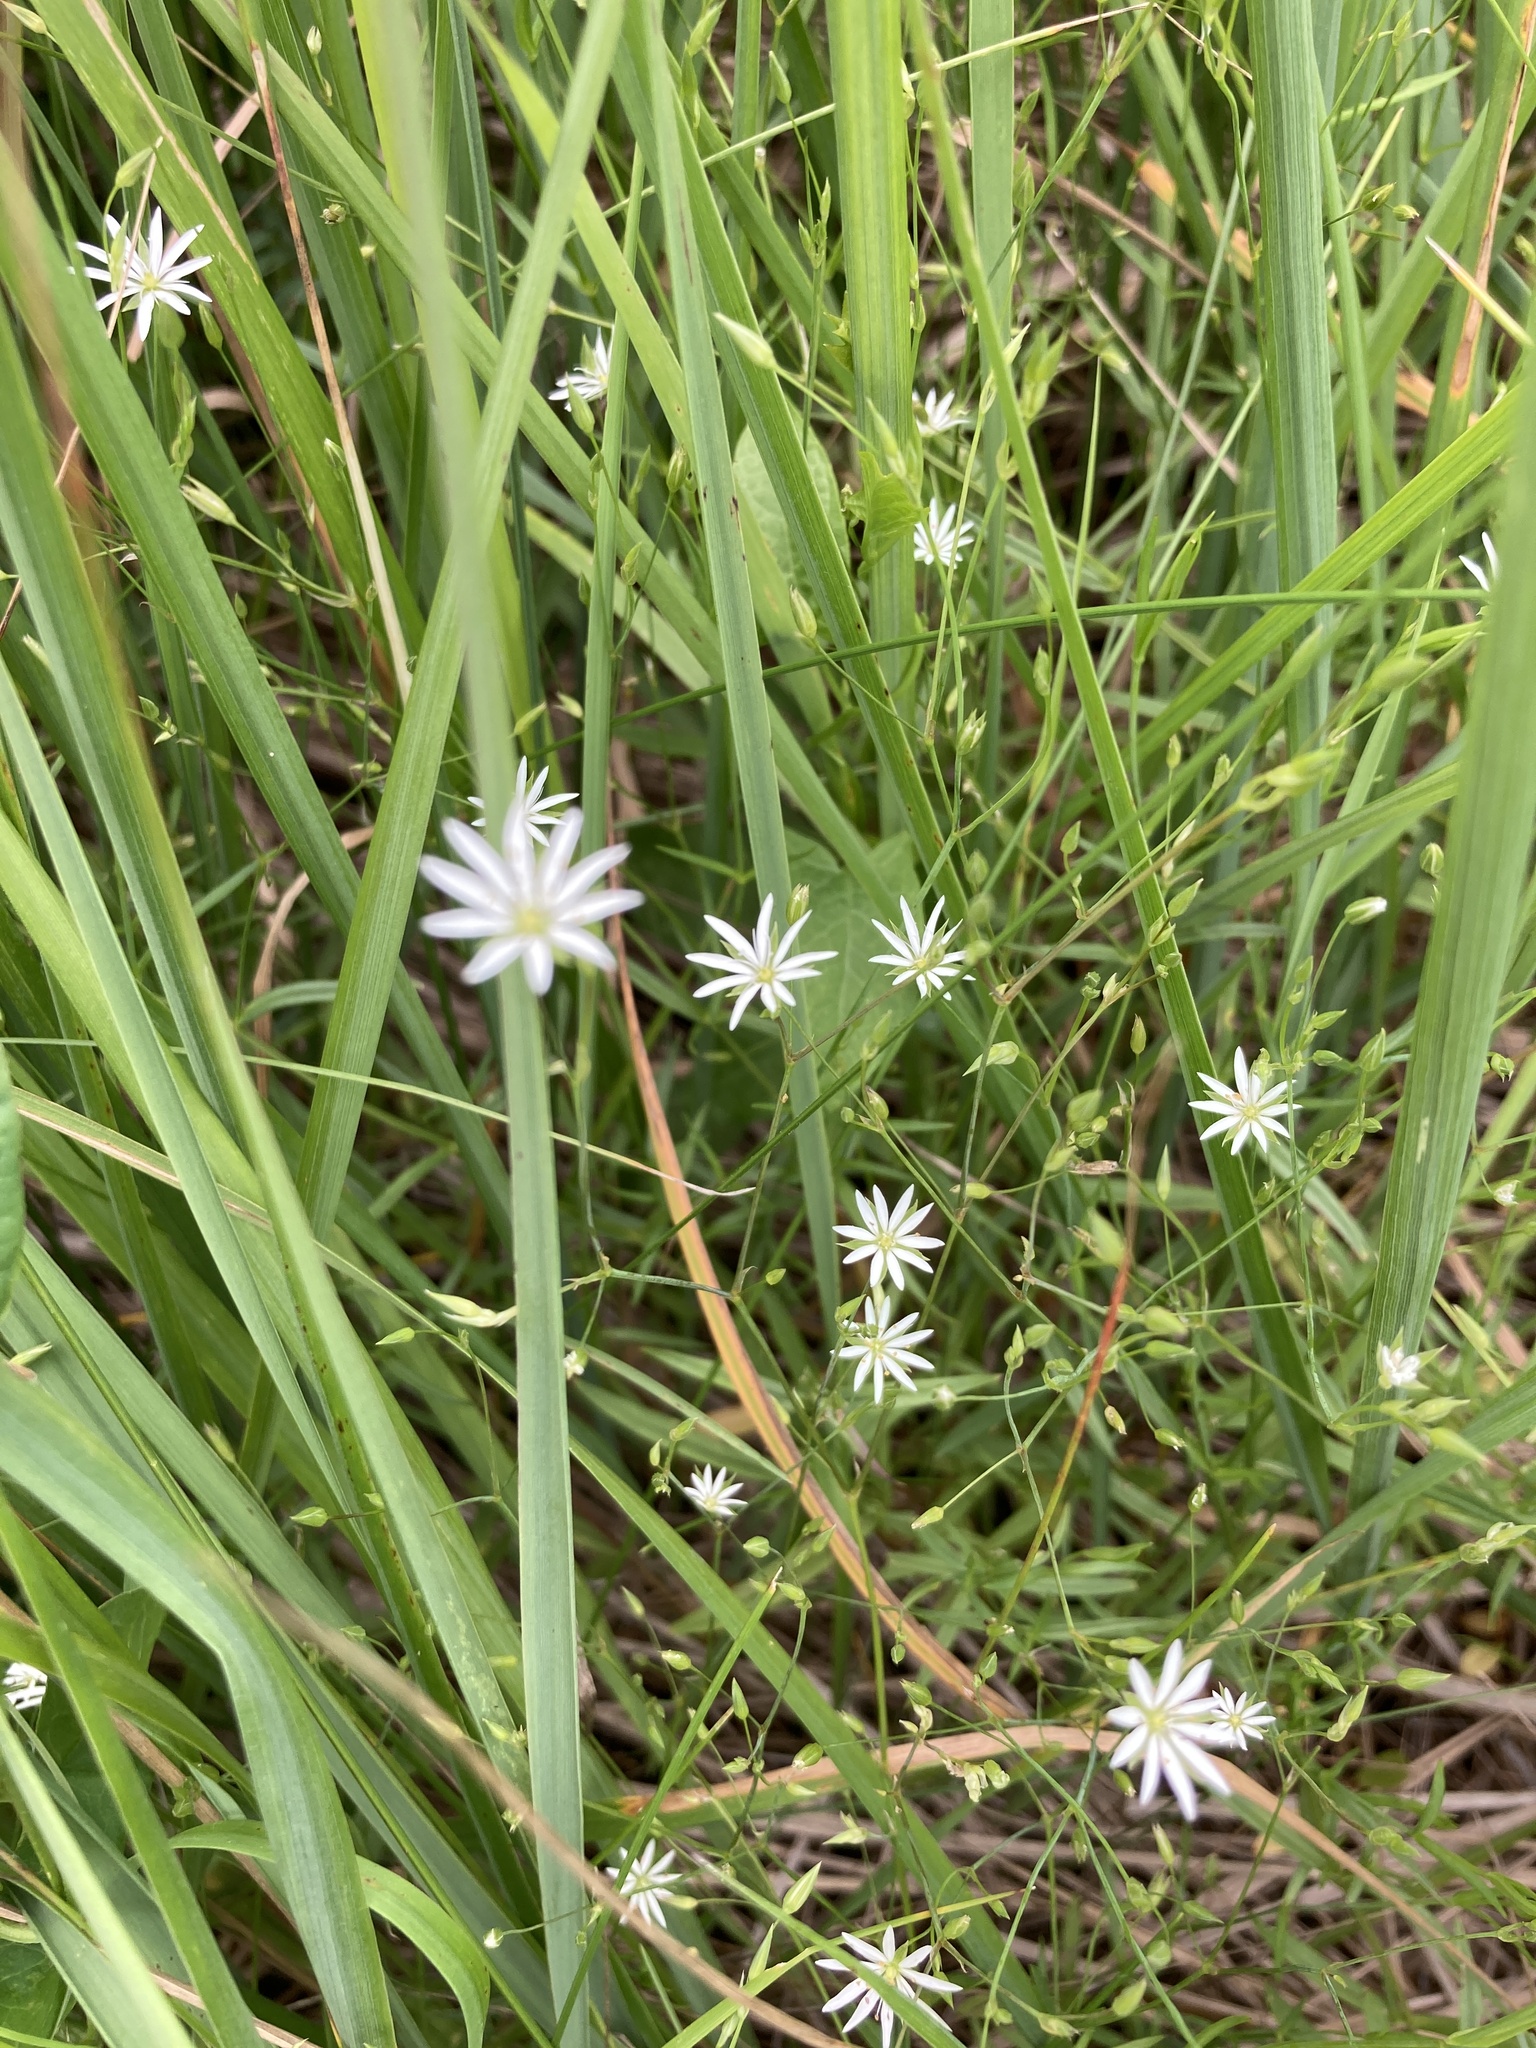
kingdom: Plantae
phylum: Tracheophyta
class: Magnoliopsida
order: Caryophyllales
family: Caryophyllaceae
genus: Stellaria
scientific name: Stellaria graminea
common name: Grass-like starwort
